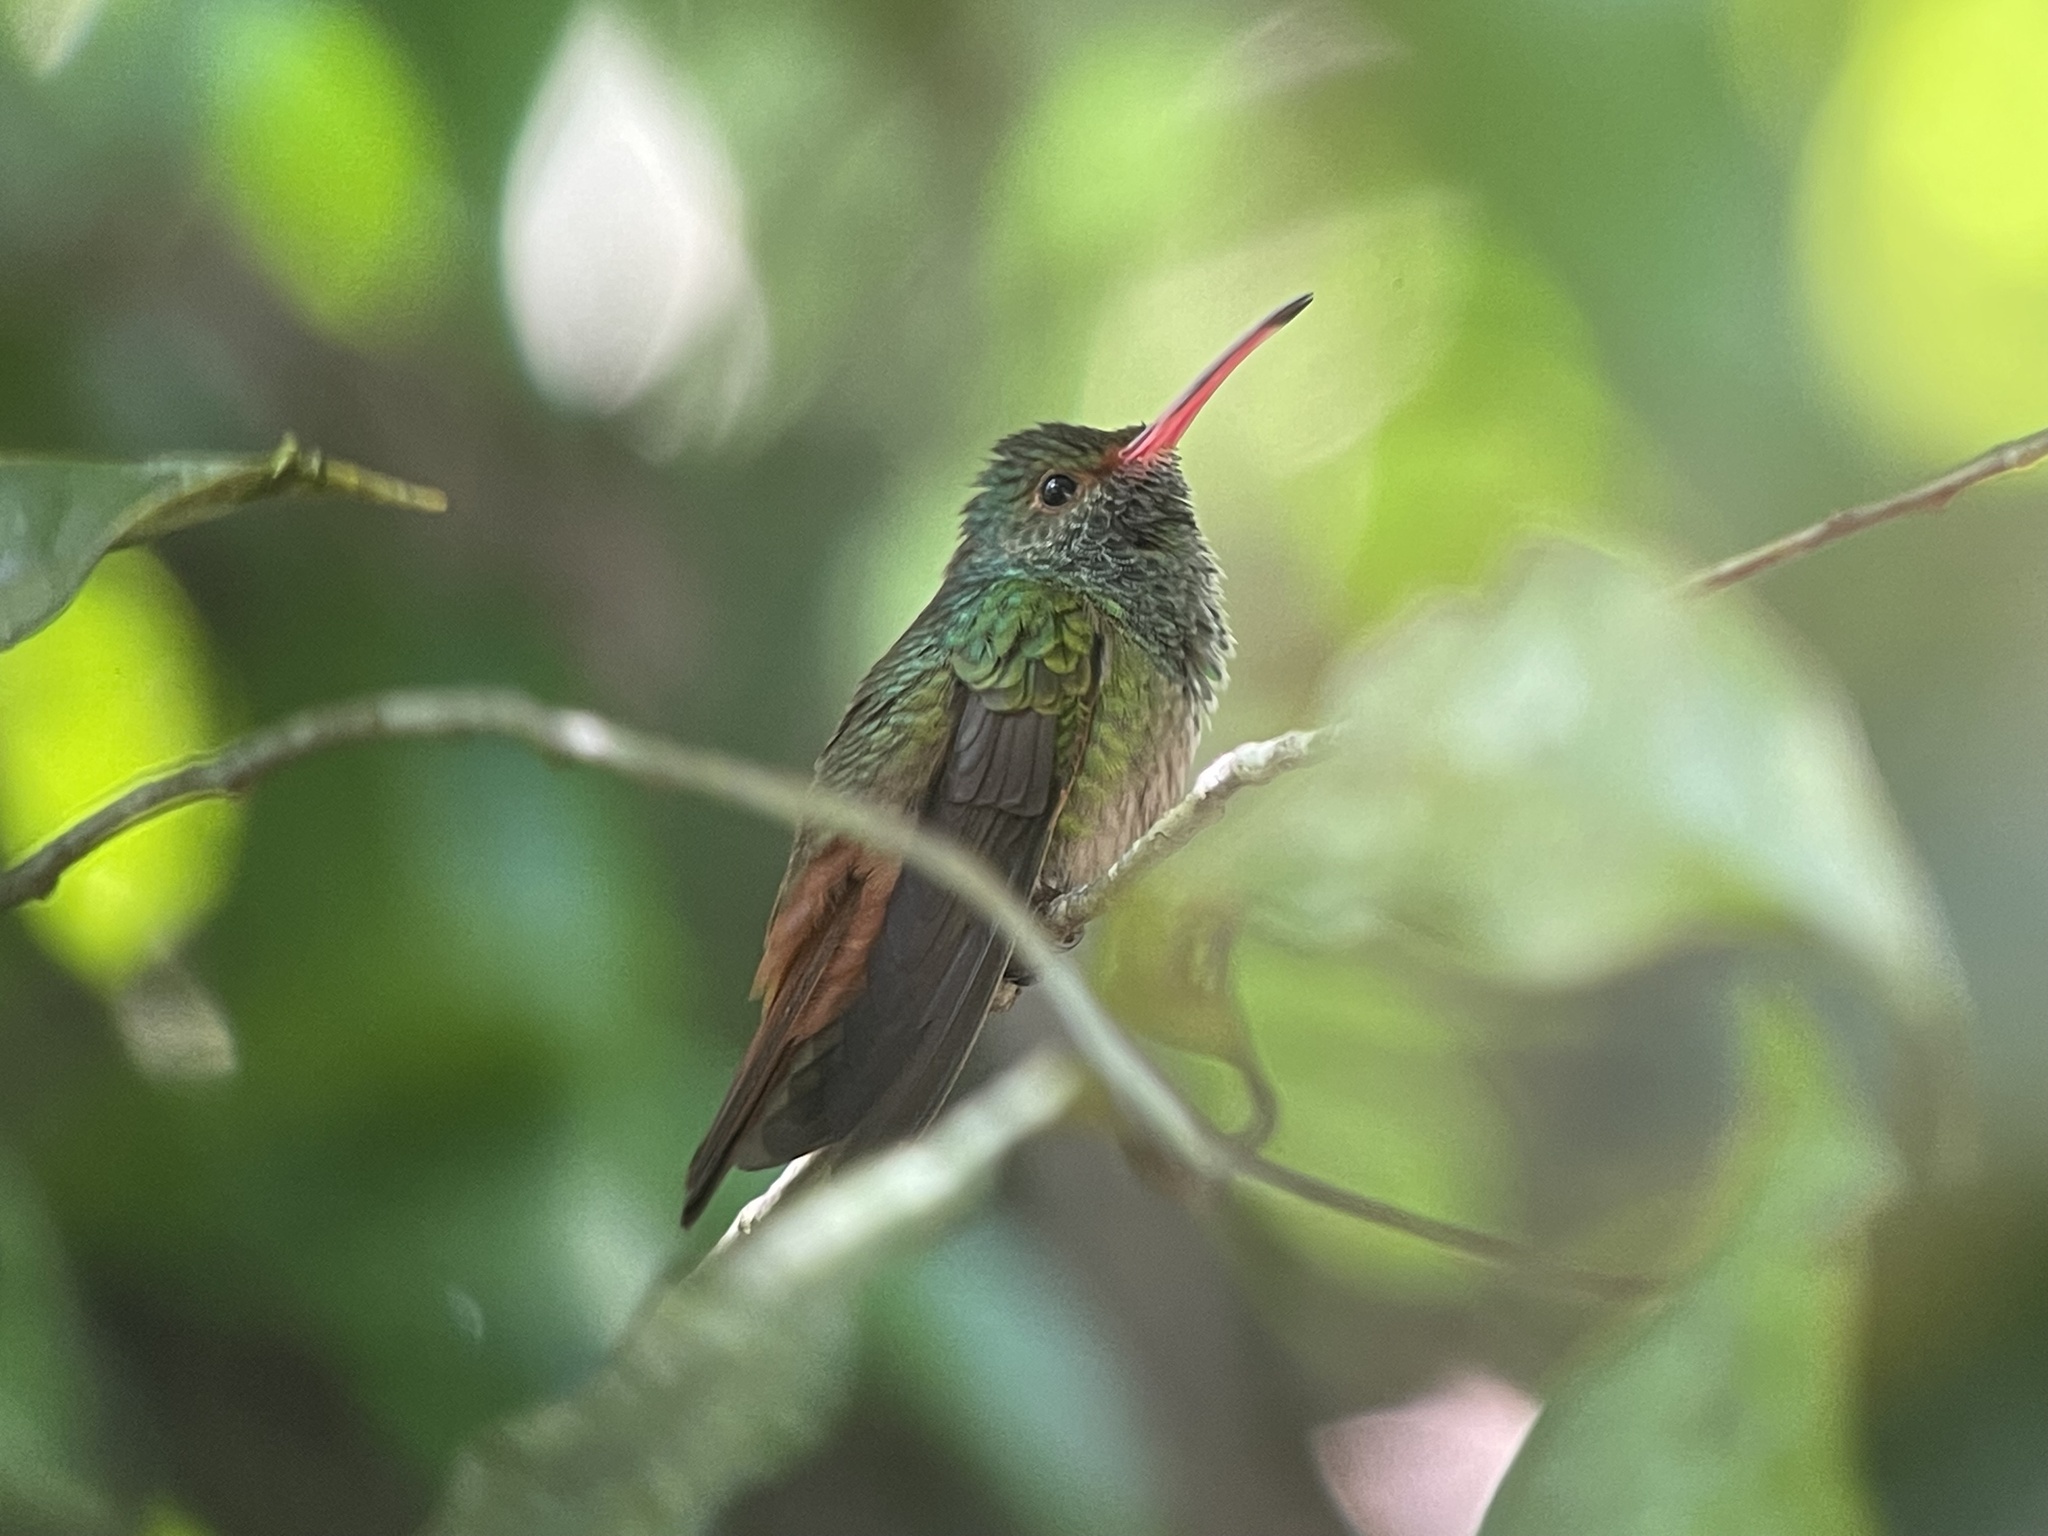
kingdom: Animalia
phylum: Chordata
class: Aves
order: Apodiformes
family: Trochilidae
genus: Amazilia
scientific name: Amazilia tzacatl
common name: Rufous-tailed hummingbird
